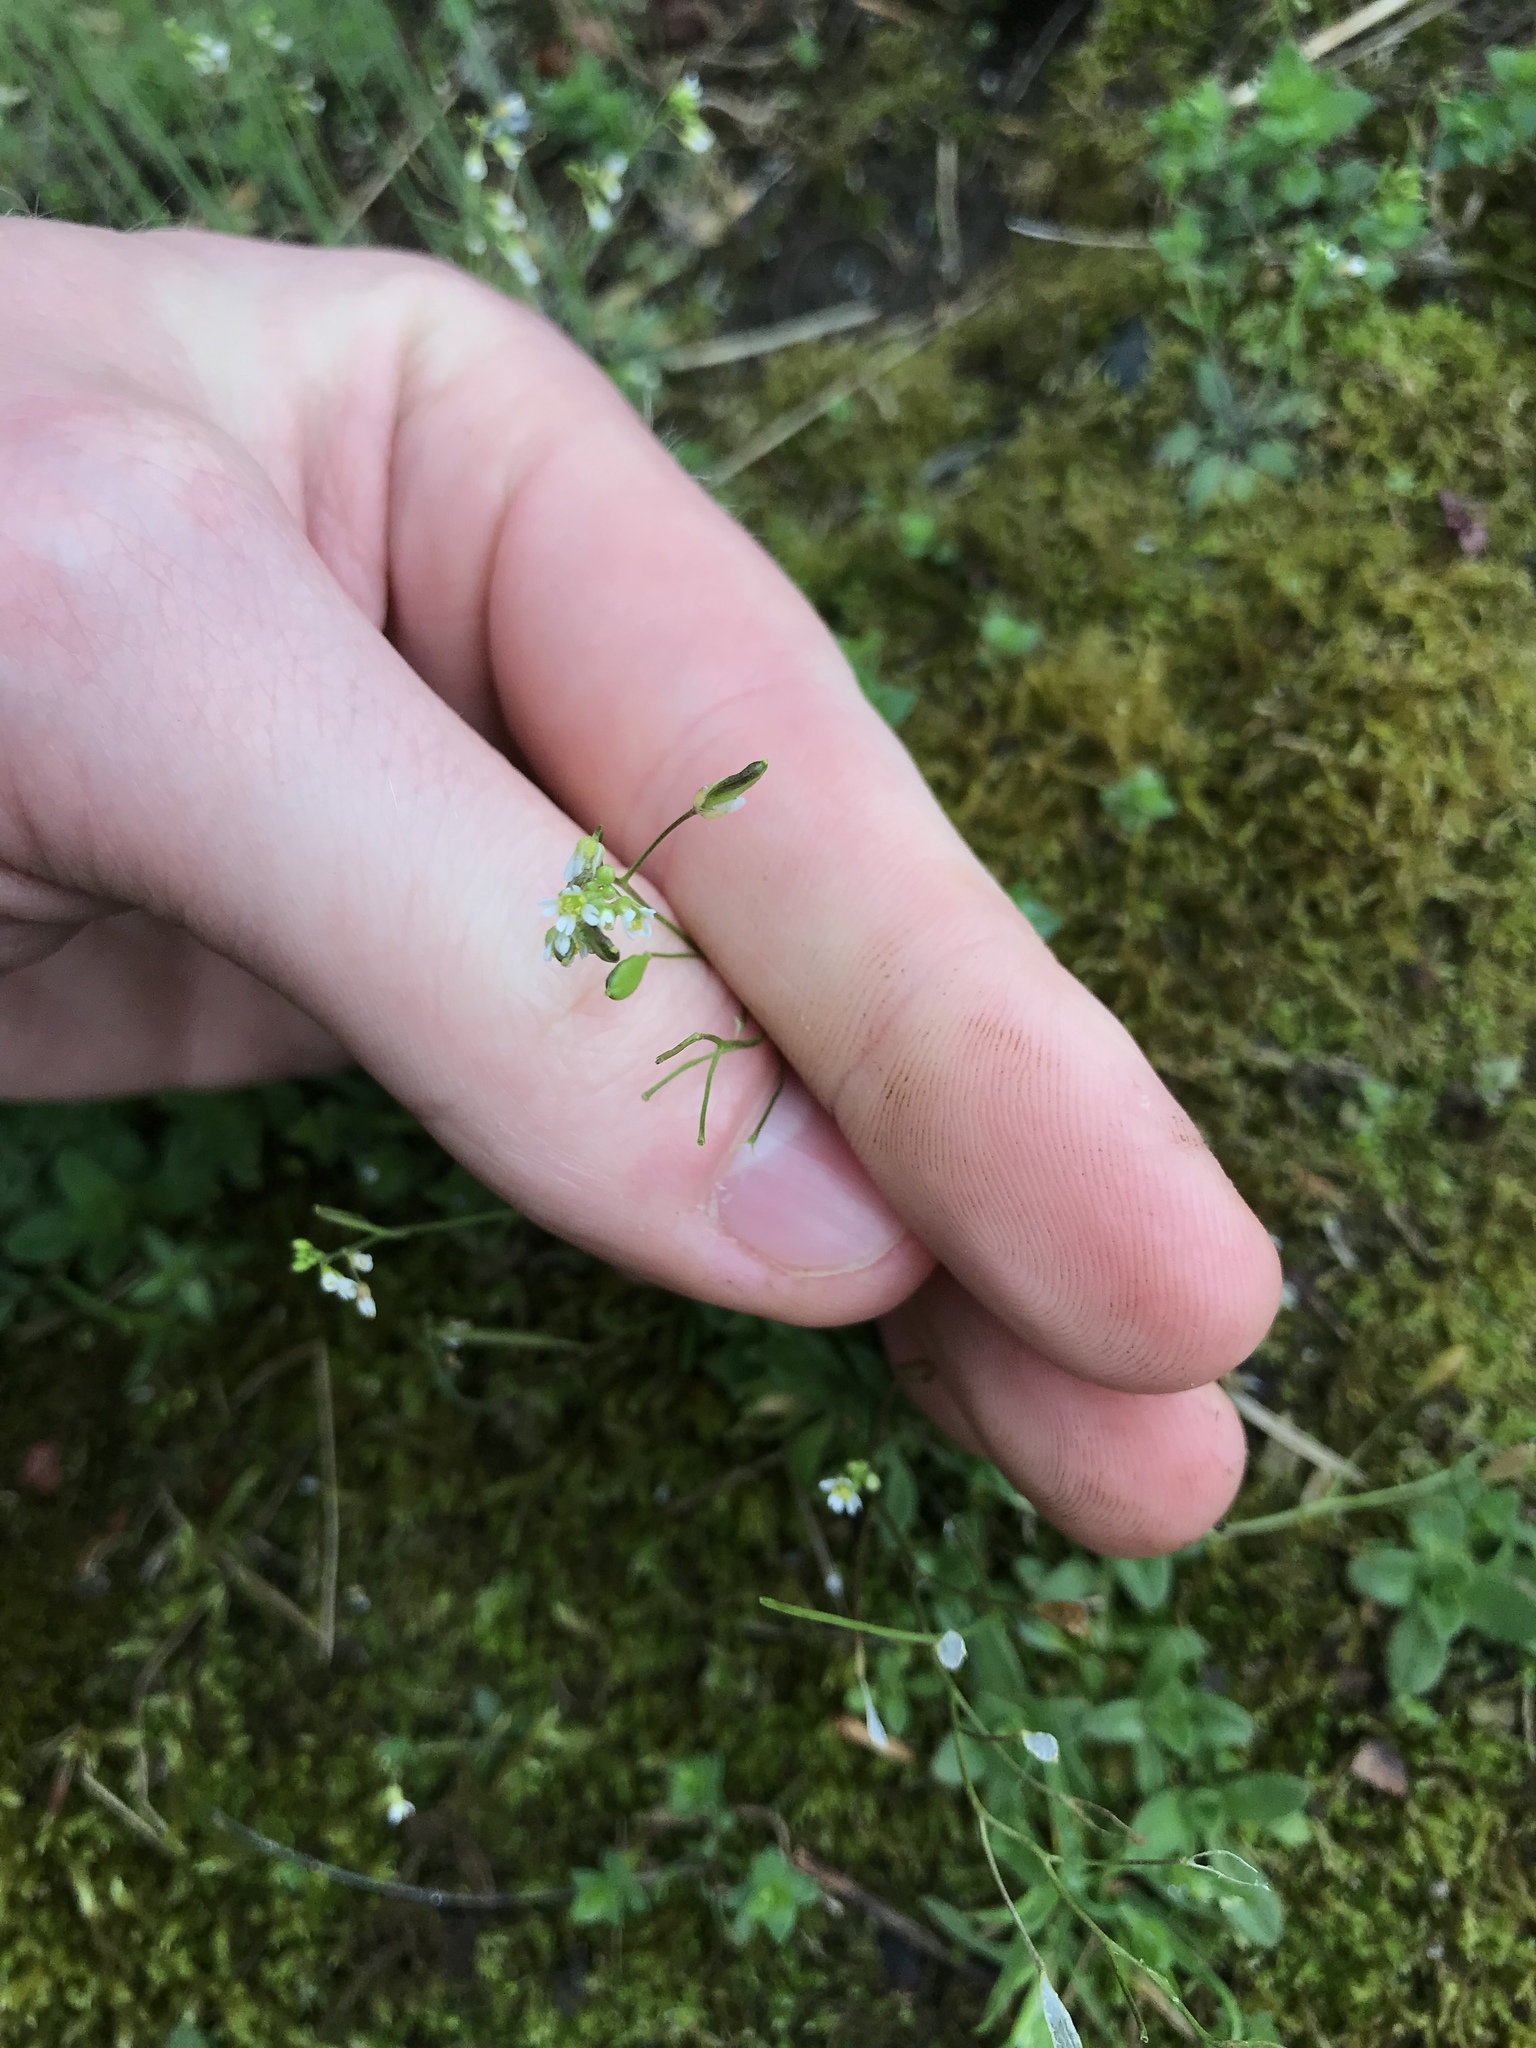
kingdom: Plantae
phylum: Tracheophyta
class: Magnoliopsida
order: Brassicales
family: Brassicaceae
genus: Draba
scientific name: Draba verna
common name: Spring draba
